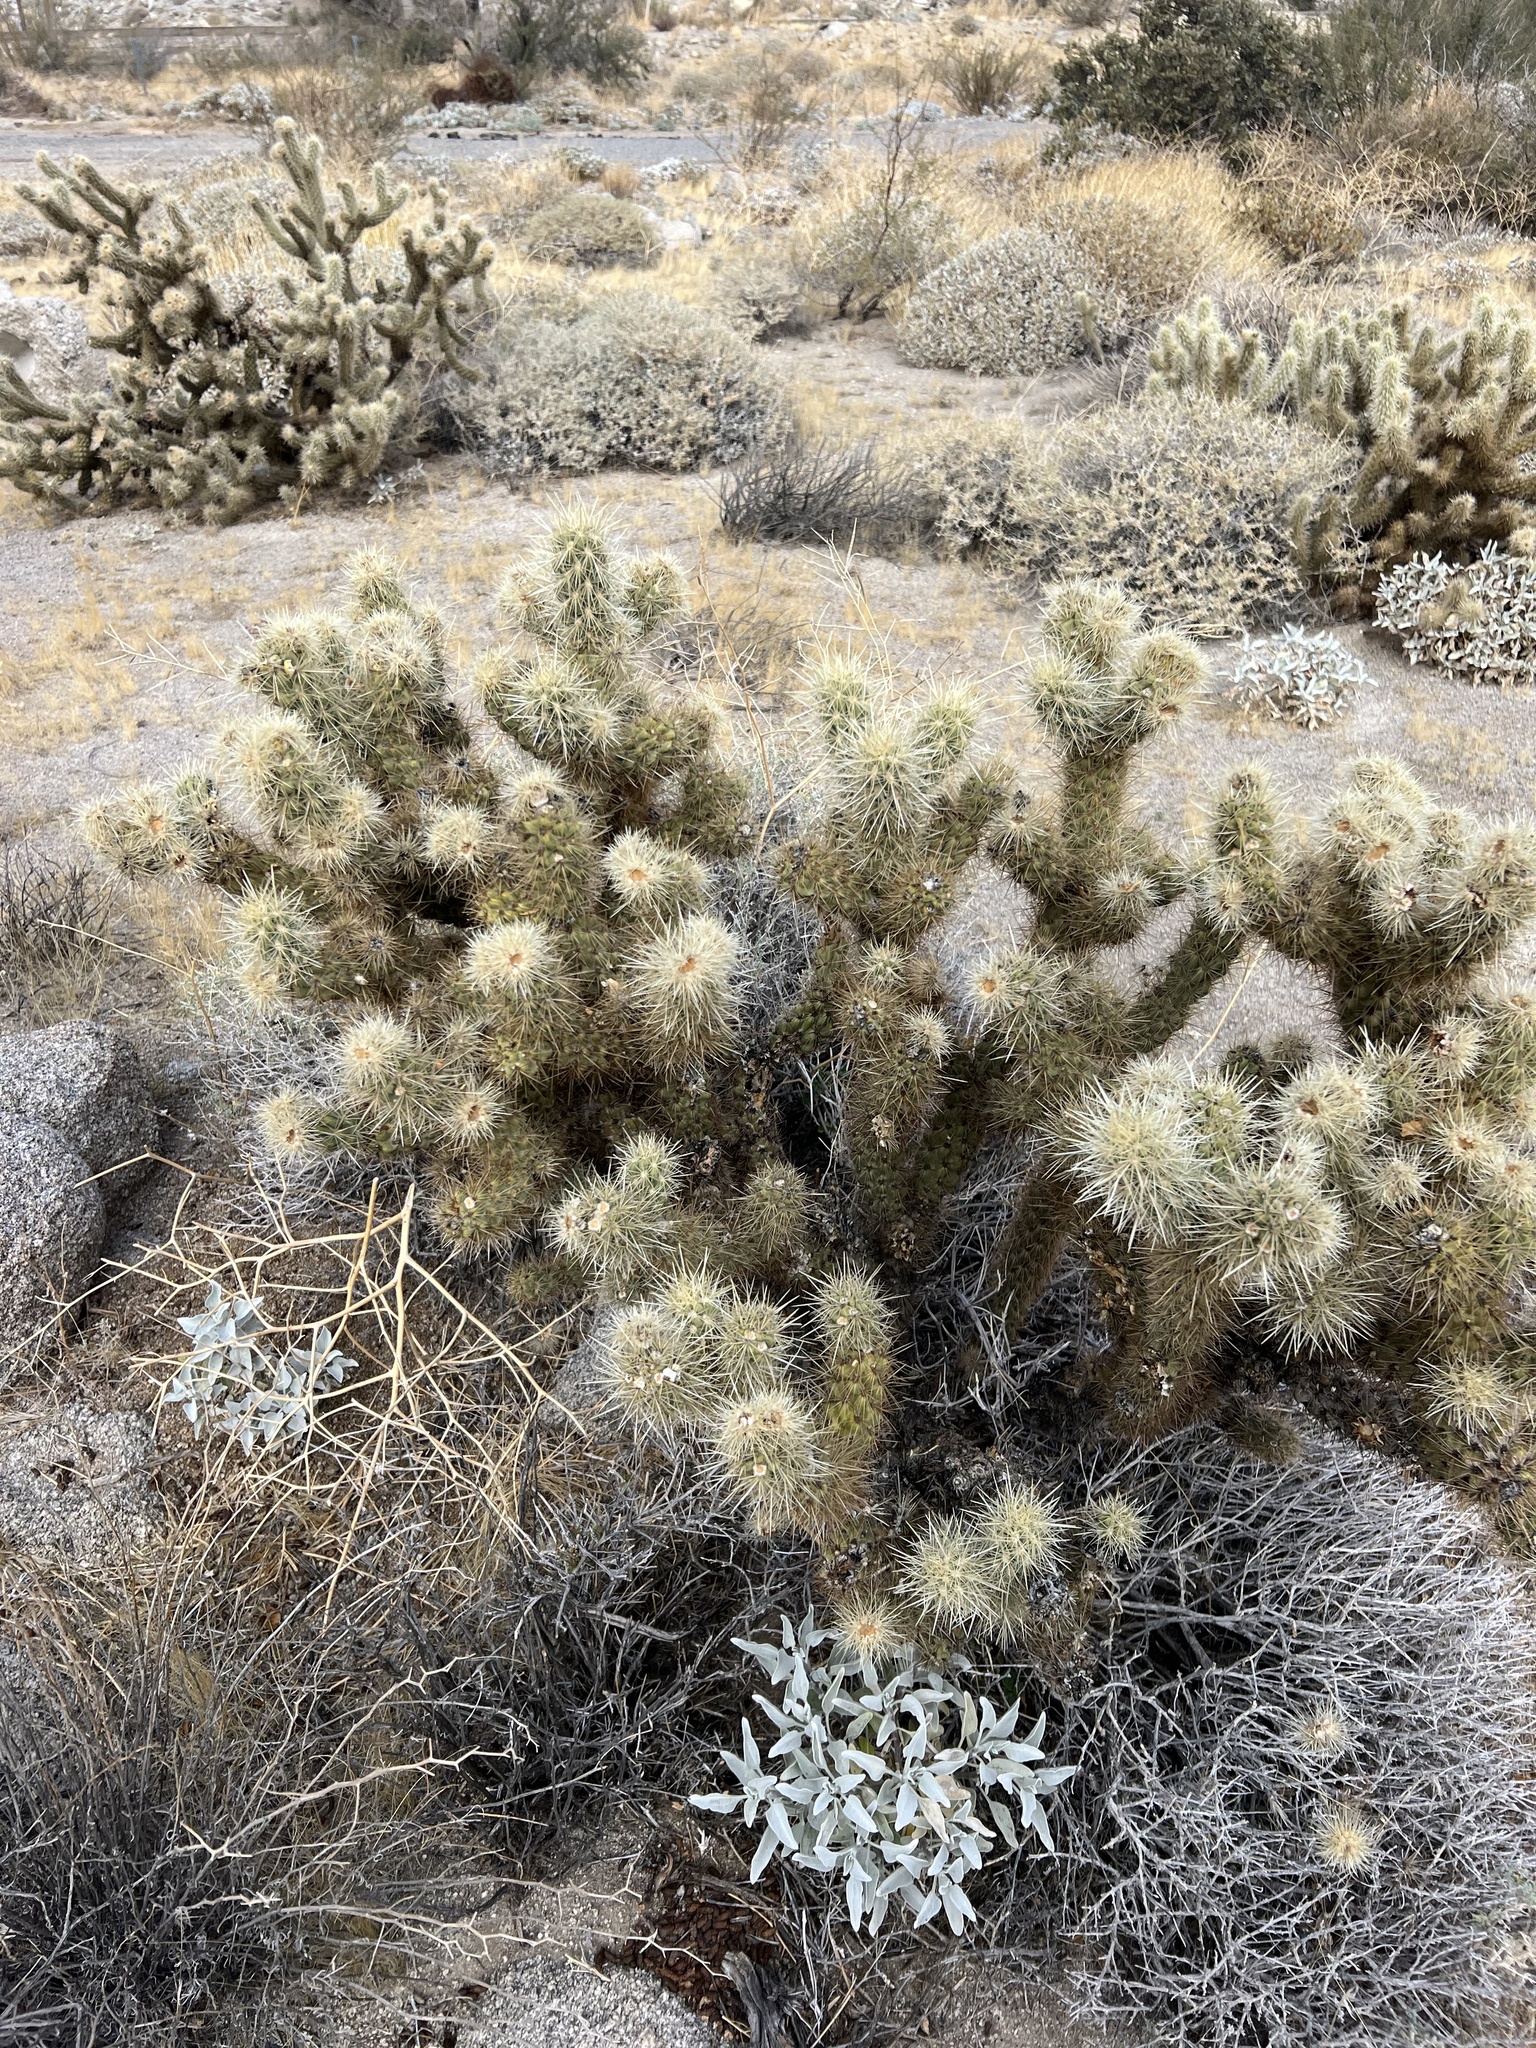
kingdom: Plantae
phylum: Tracheophyta
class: Magnoliopsida
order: Caryophyllales
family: Cactaceae
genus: Cylindropuntia
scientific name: Cylindropuntia wolfii
